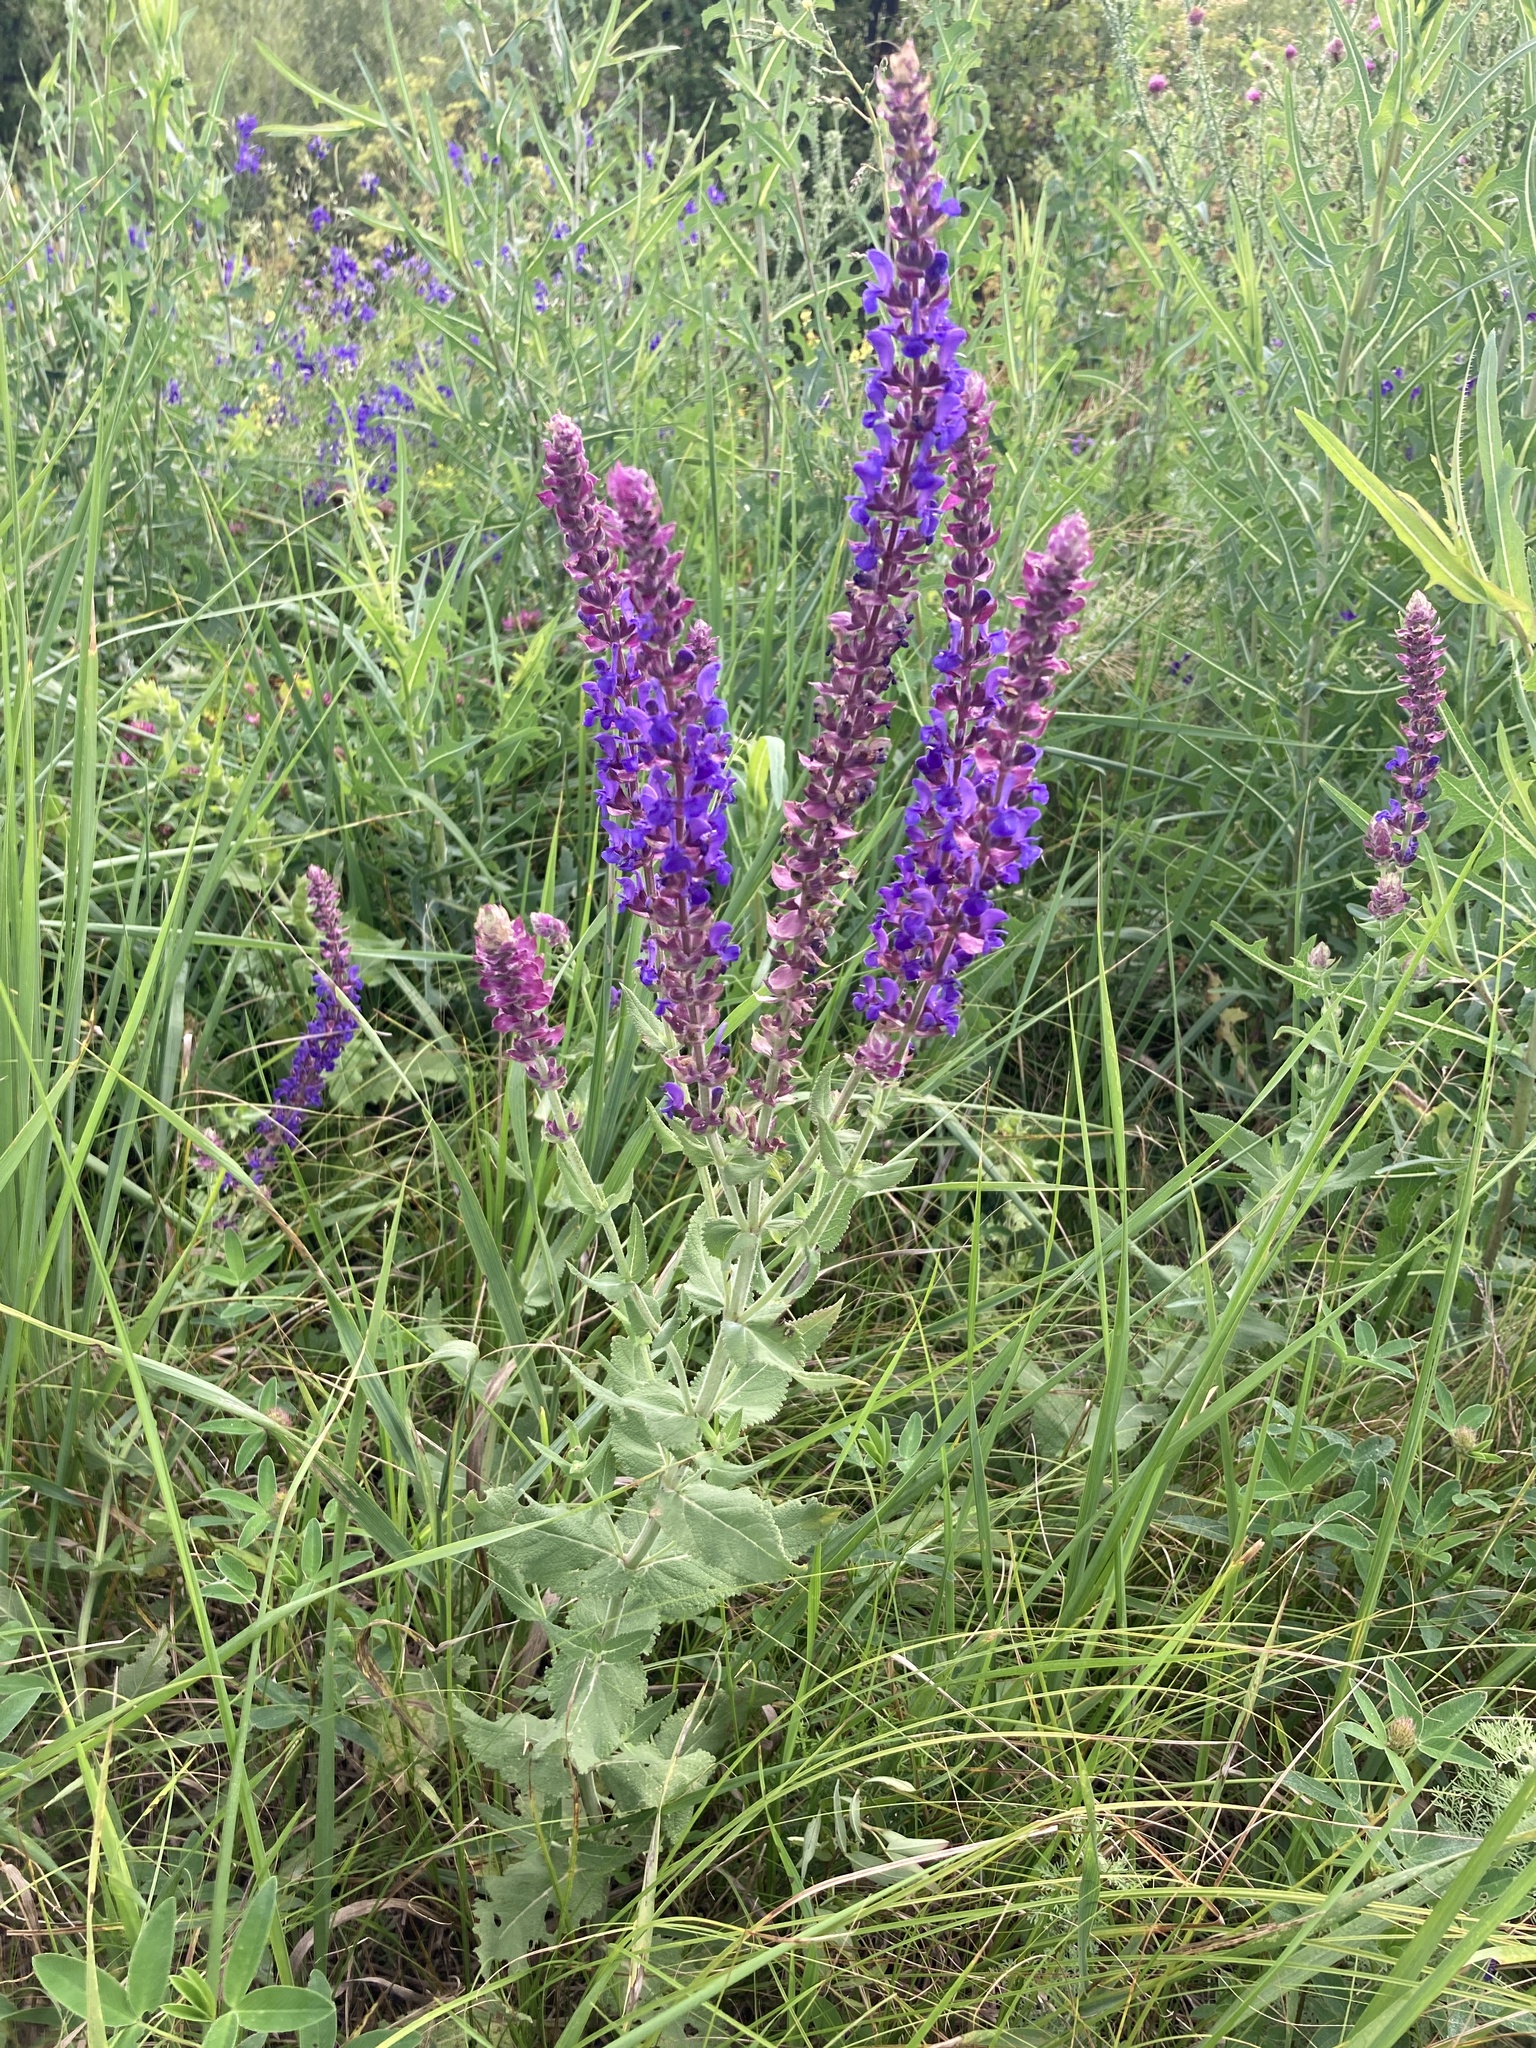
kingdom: Plantae
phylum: Tracheophyta
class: Magnoliopsida
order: Lamiales
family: Lamiaceae
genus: Salvia
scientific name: Salvia nemorosa
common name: Balkan clary
